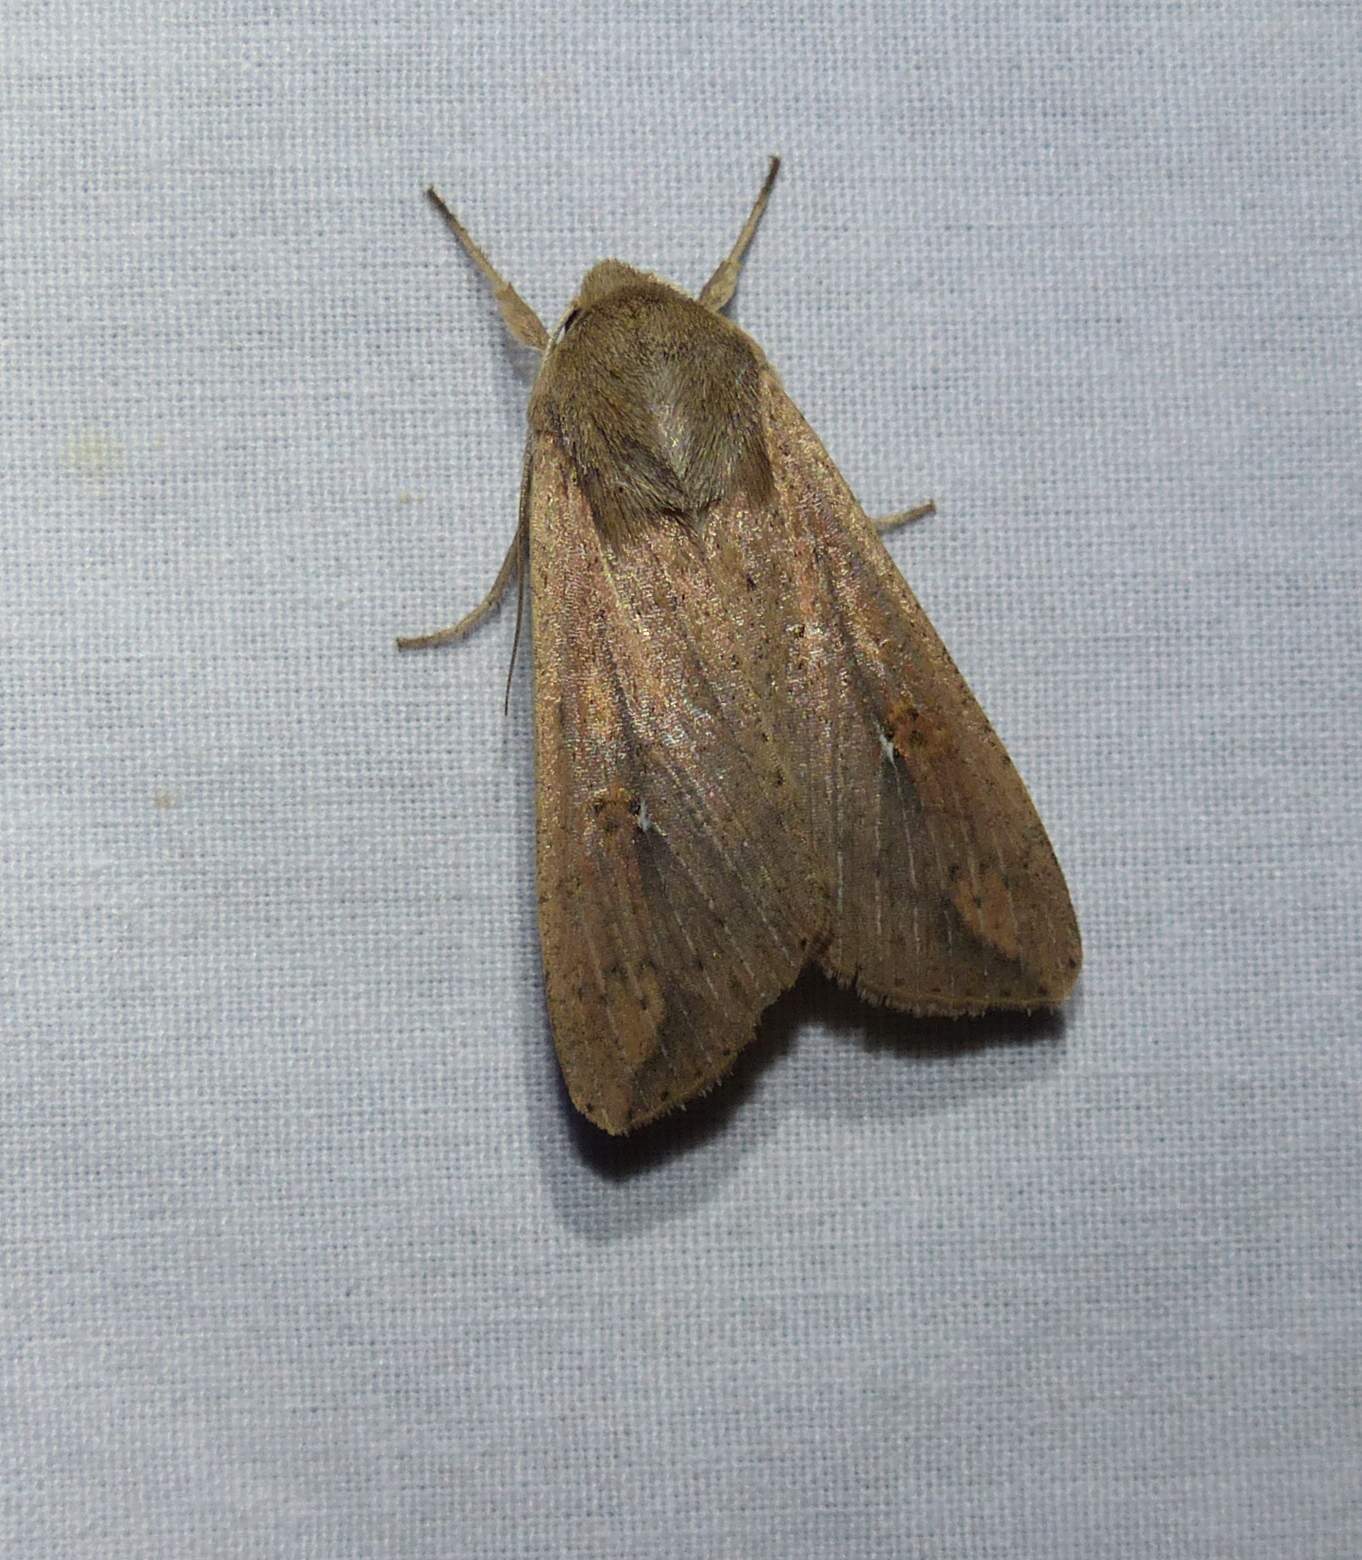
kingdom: Animalia
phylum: Arthropoda
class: Insecta
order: Lepidoptera
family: Noctuidae
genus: Mythimna
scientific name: Mythimna unipuncta
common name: White-speck
